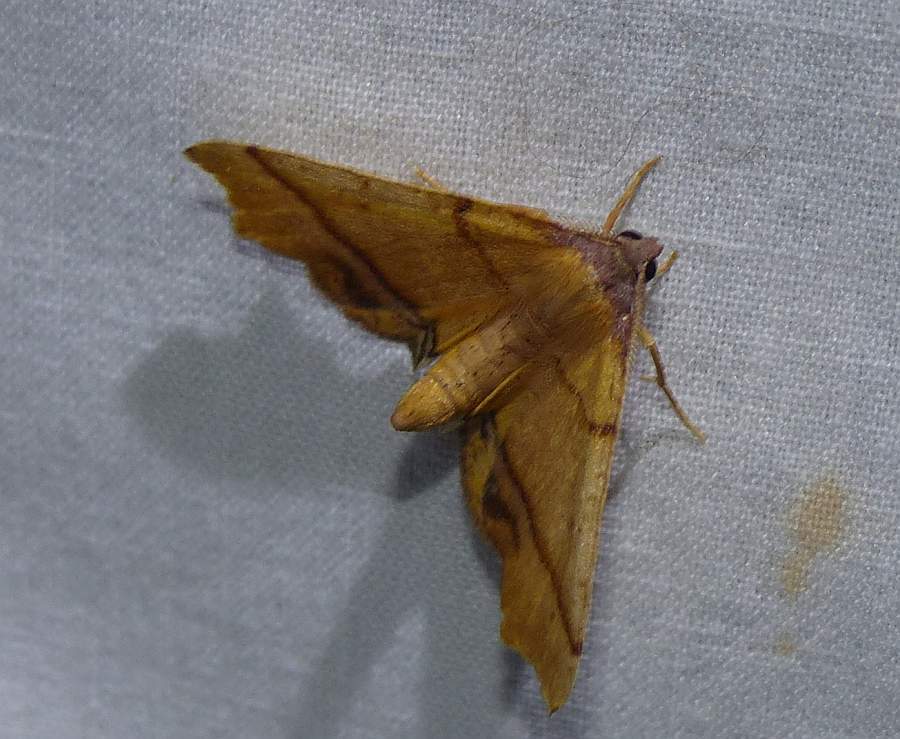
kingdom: Animalia
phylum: Arthropoda
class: Insecta
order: Lepidoptera
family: Geometridae
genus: Plagodis
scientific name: Plagodis phlogosaria
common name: Straight-lined plagodis
